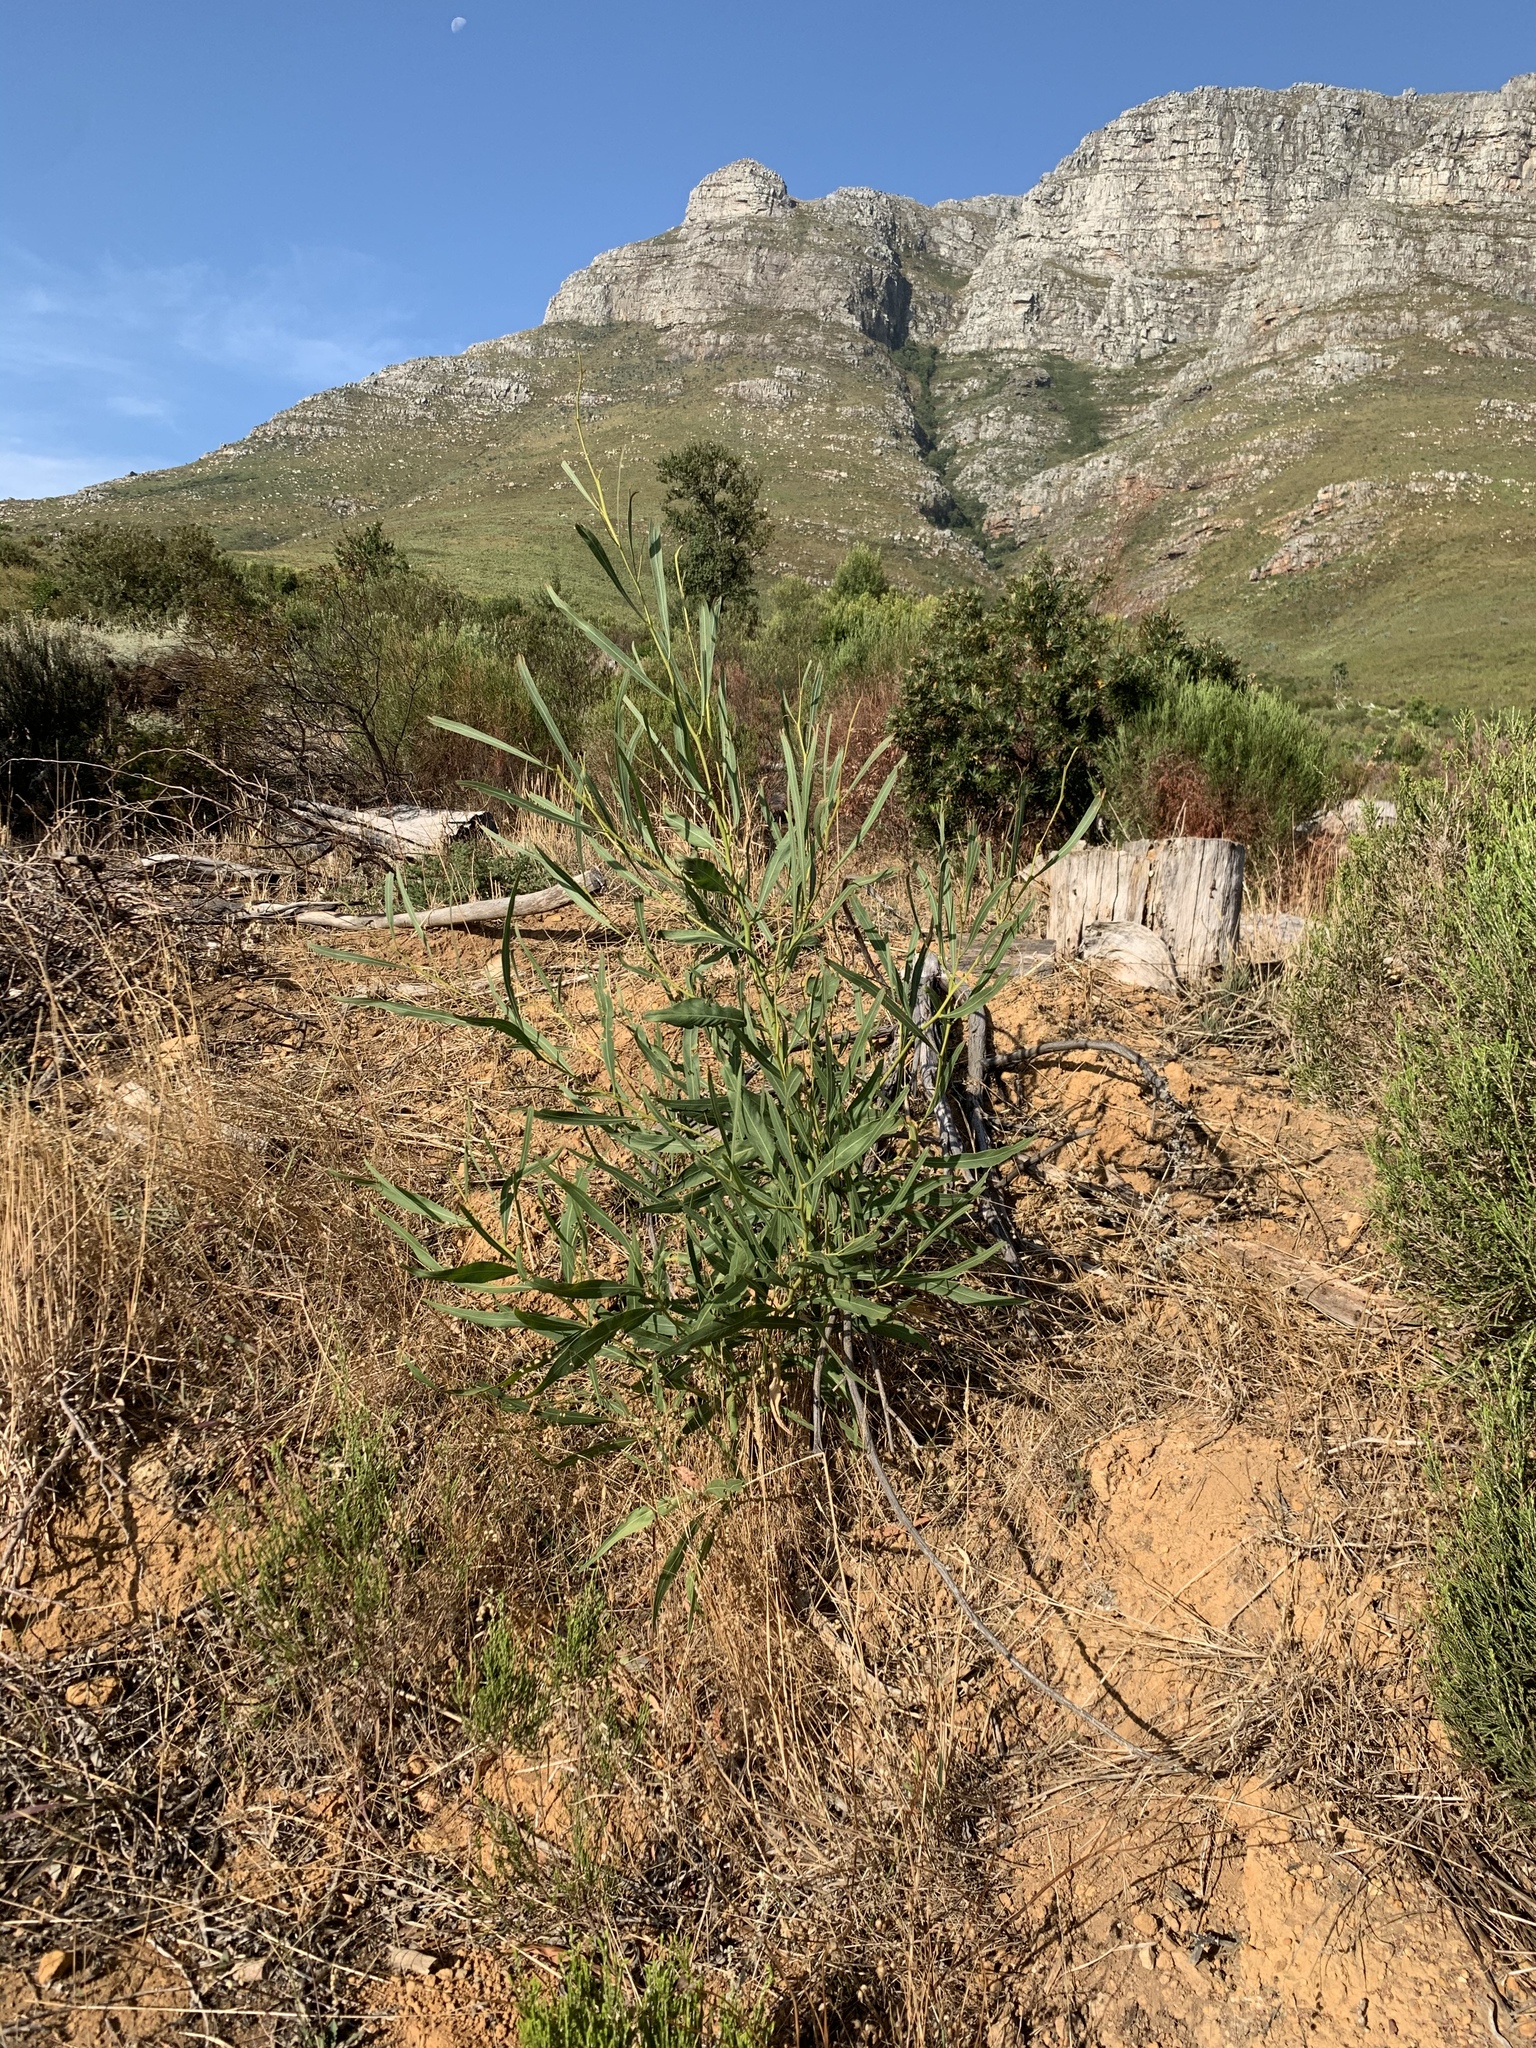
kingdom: Plantae
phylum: Tracheophyta
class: Magnoliopsida
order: Fabales
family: Fabaceae
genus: Acacia
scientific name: Acacia saligna
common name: Orange wattle
